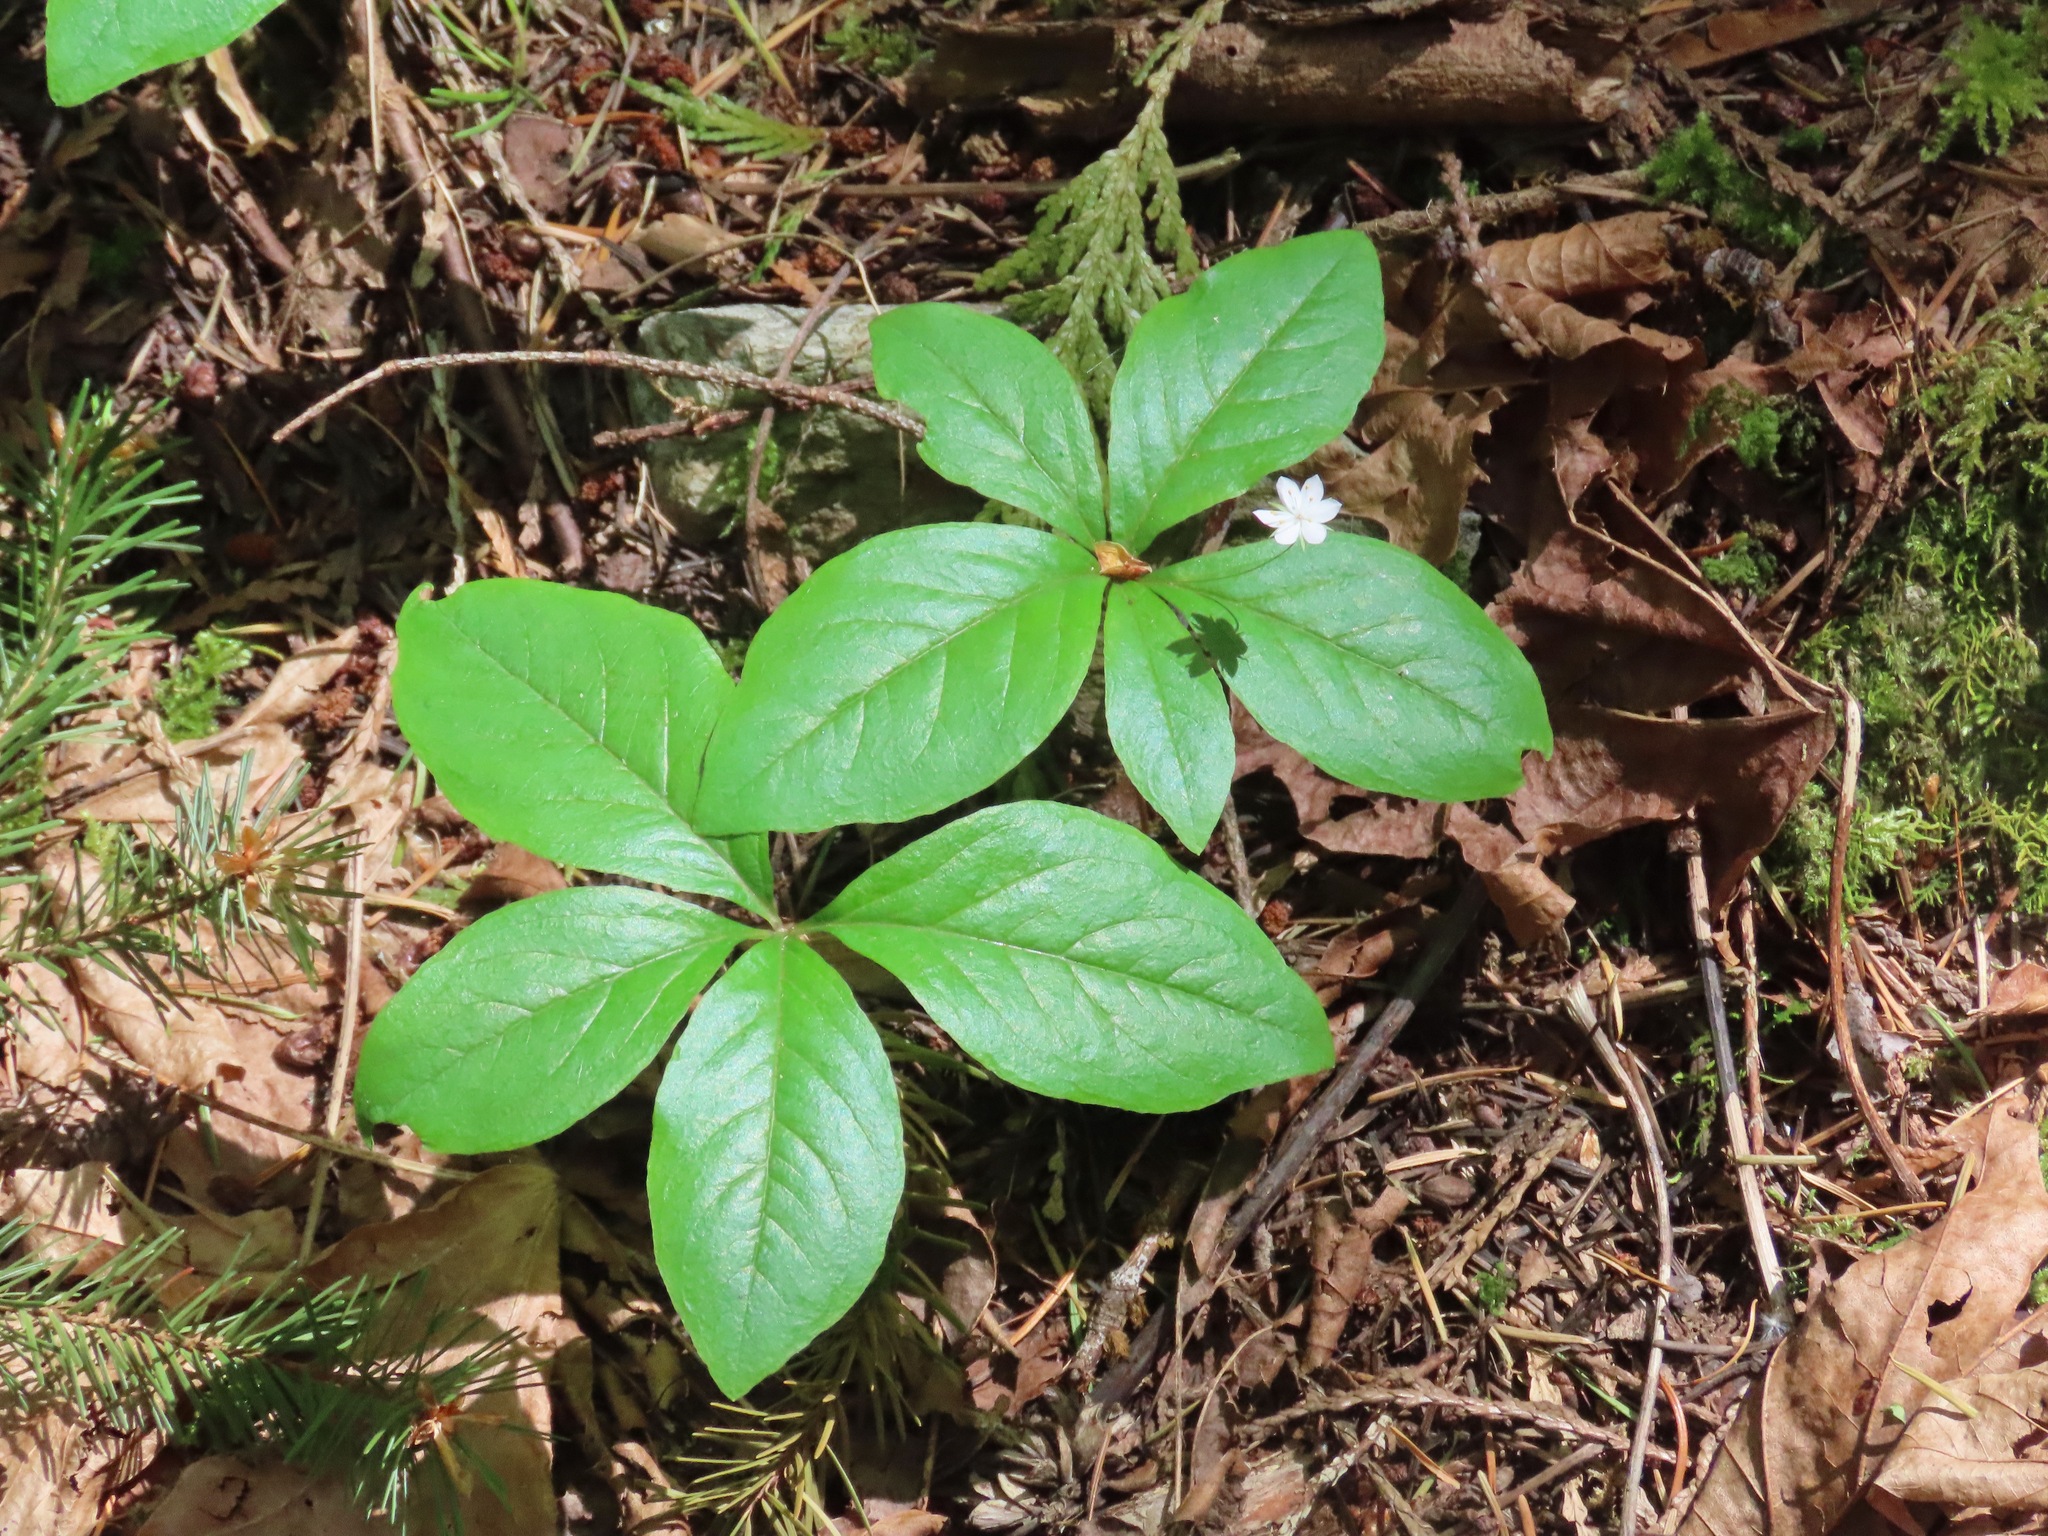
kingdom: Plantae
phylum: Tracheophyta
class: Magnoliopsida
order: Ericales
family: Primulaceae
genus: Lysimachia
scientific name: Lysimachia latifolia
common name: Pacific starflower
